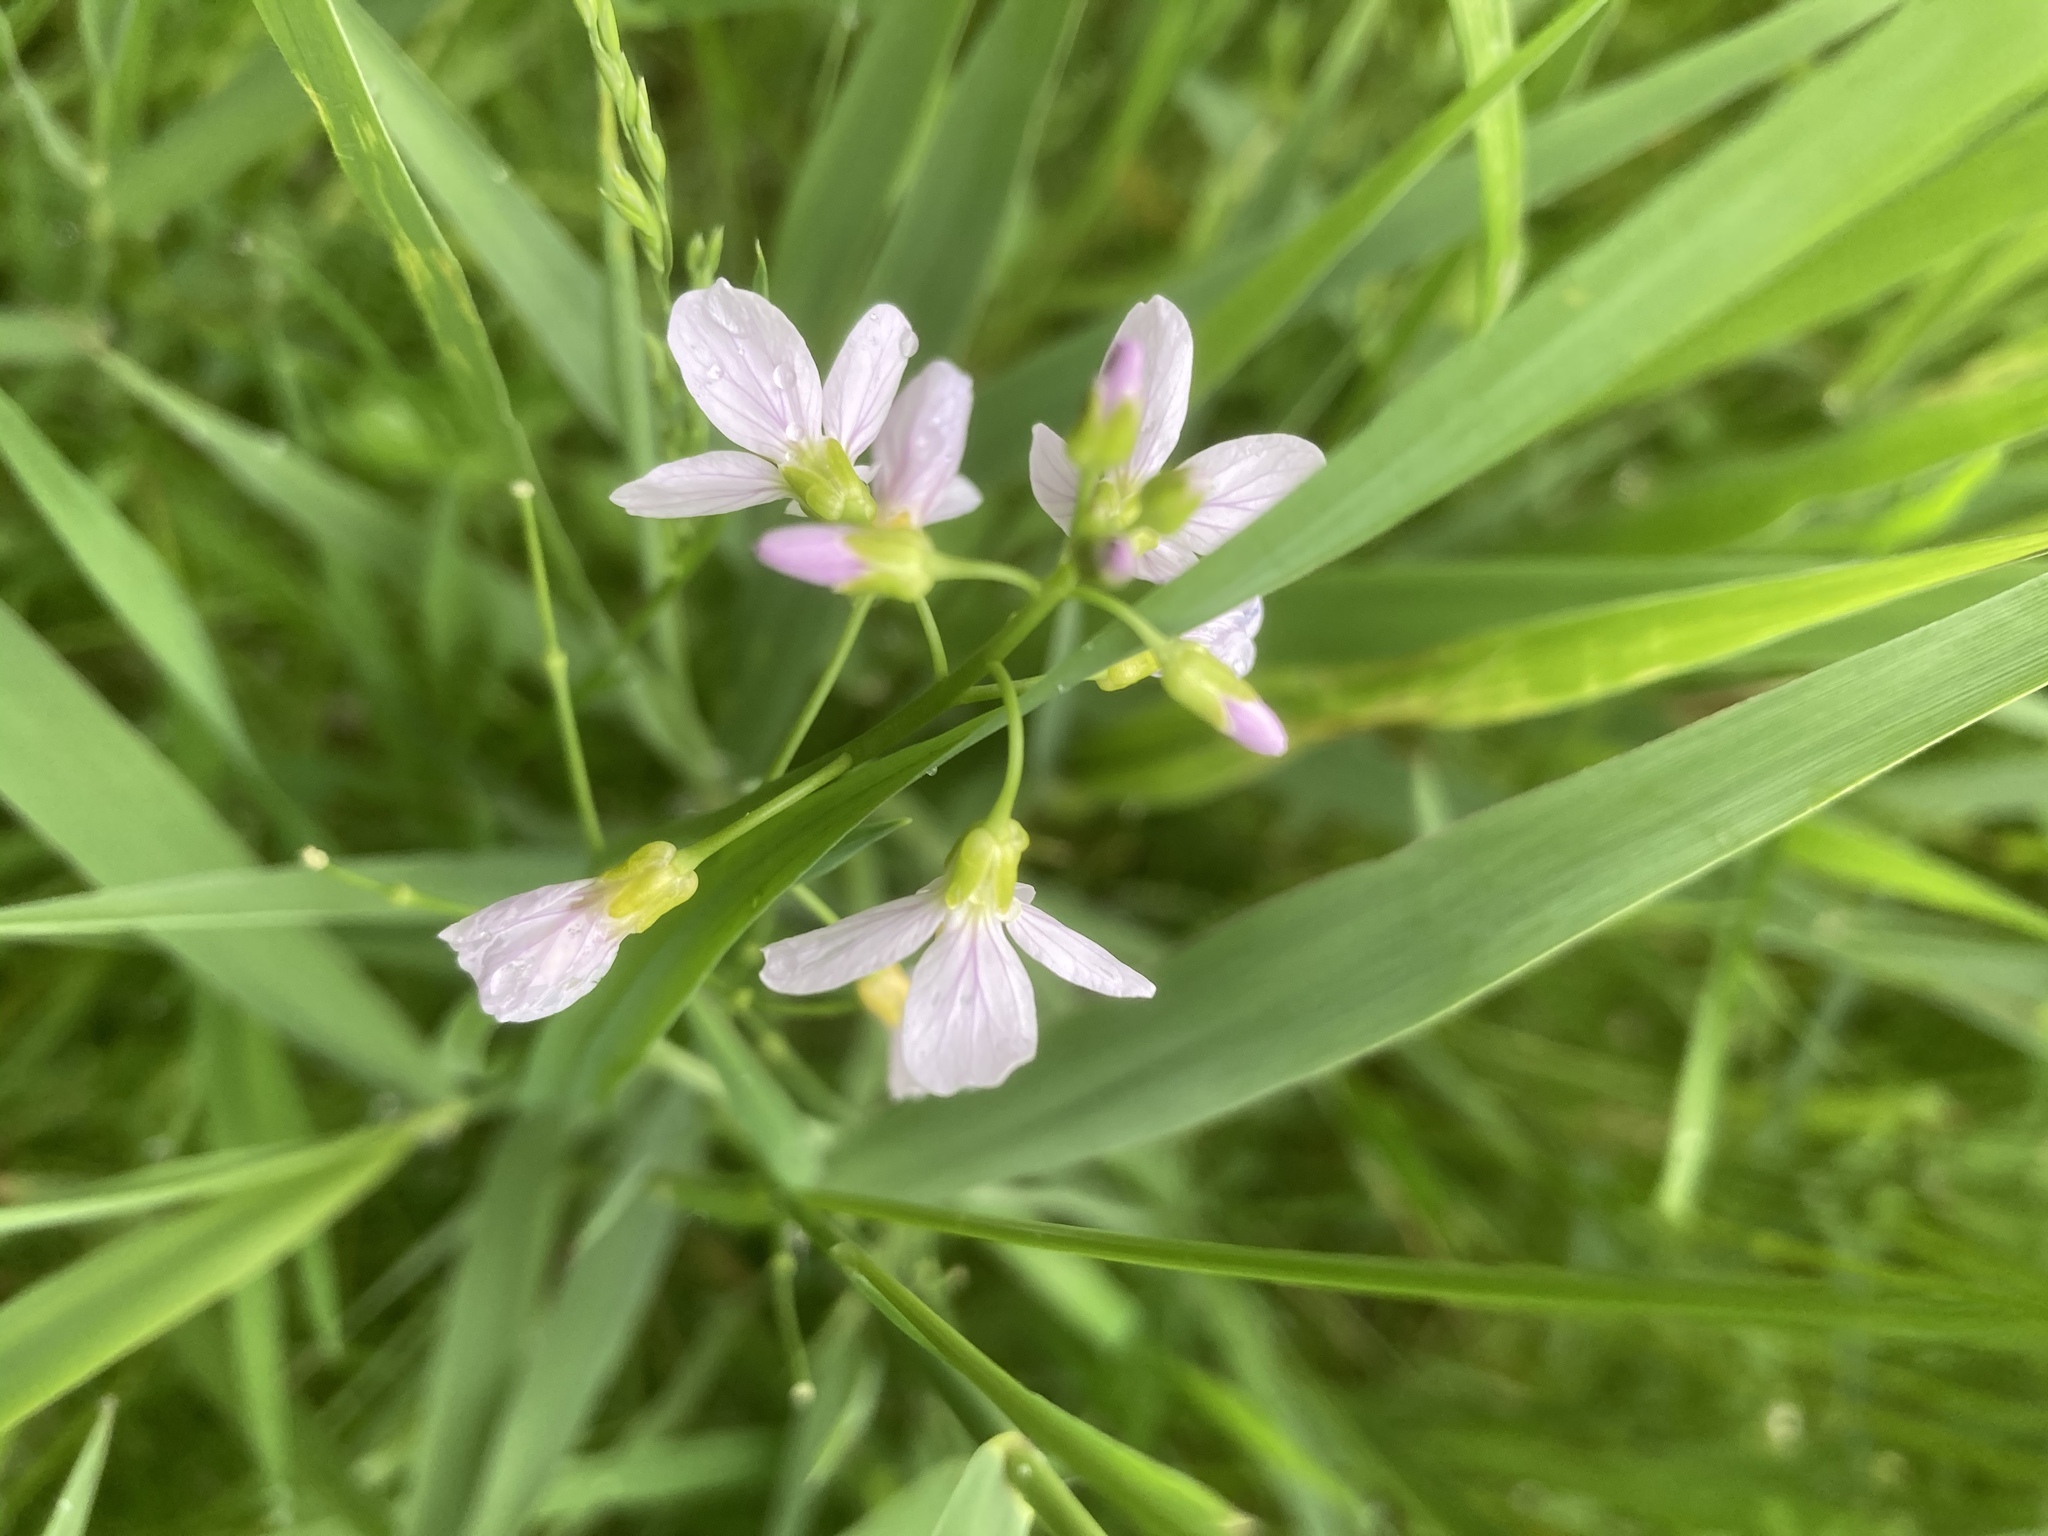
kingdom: Plantae
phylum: Tracheophyta
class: Magnoliopsida
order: Brassicales
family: Brassicaceae
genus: Cardamine
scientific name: Cardamine pratensis
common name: Cuckoo flower
